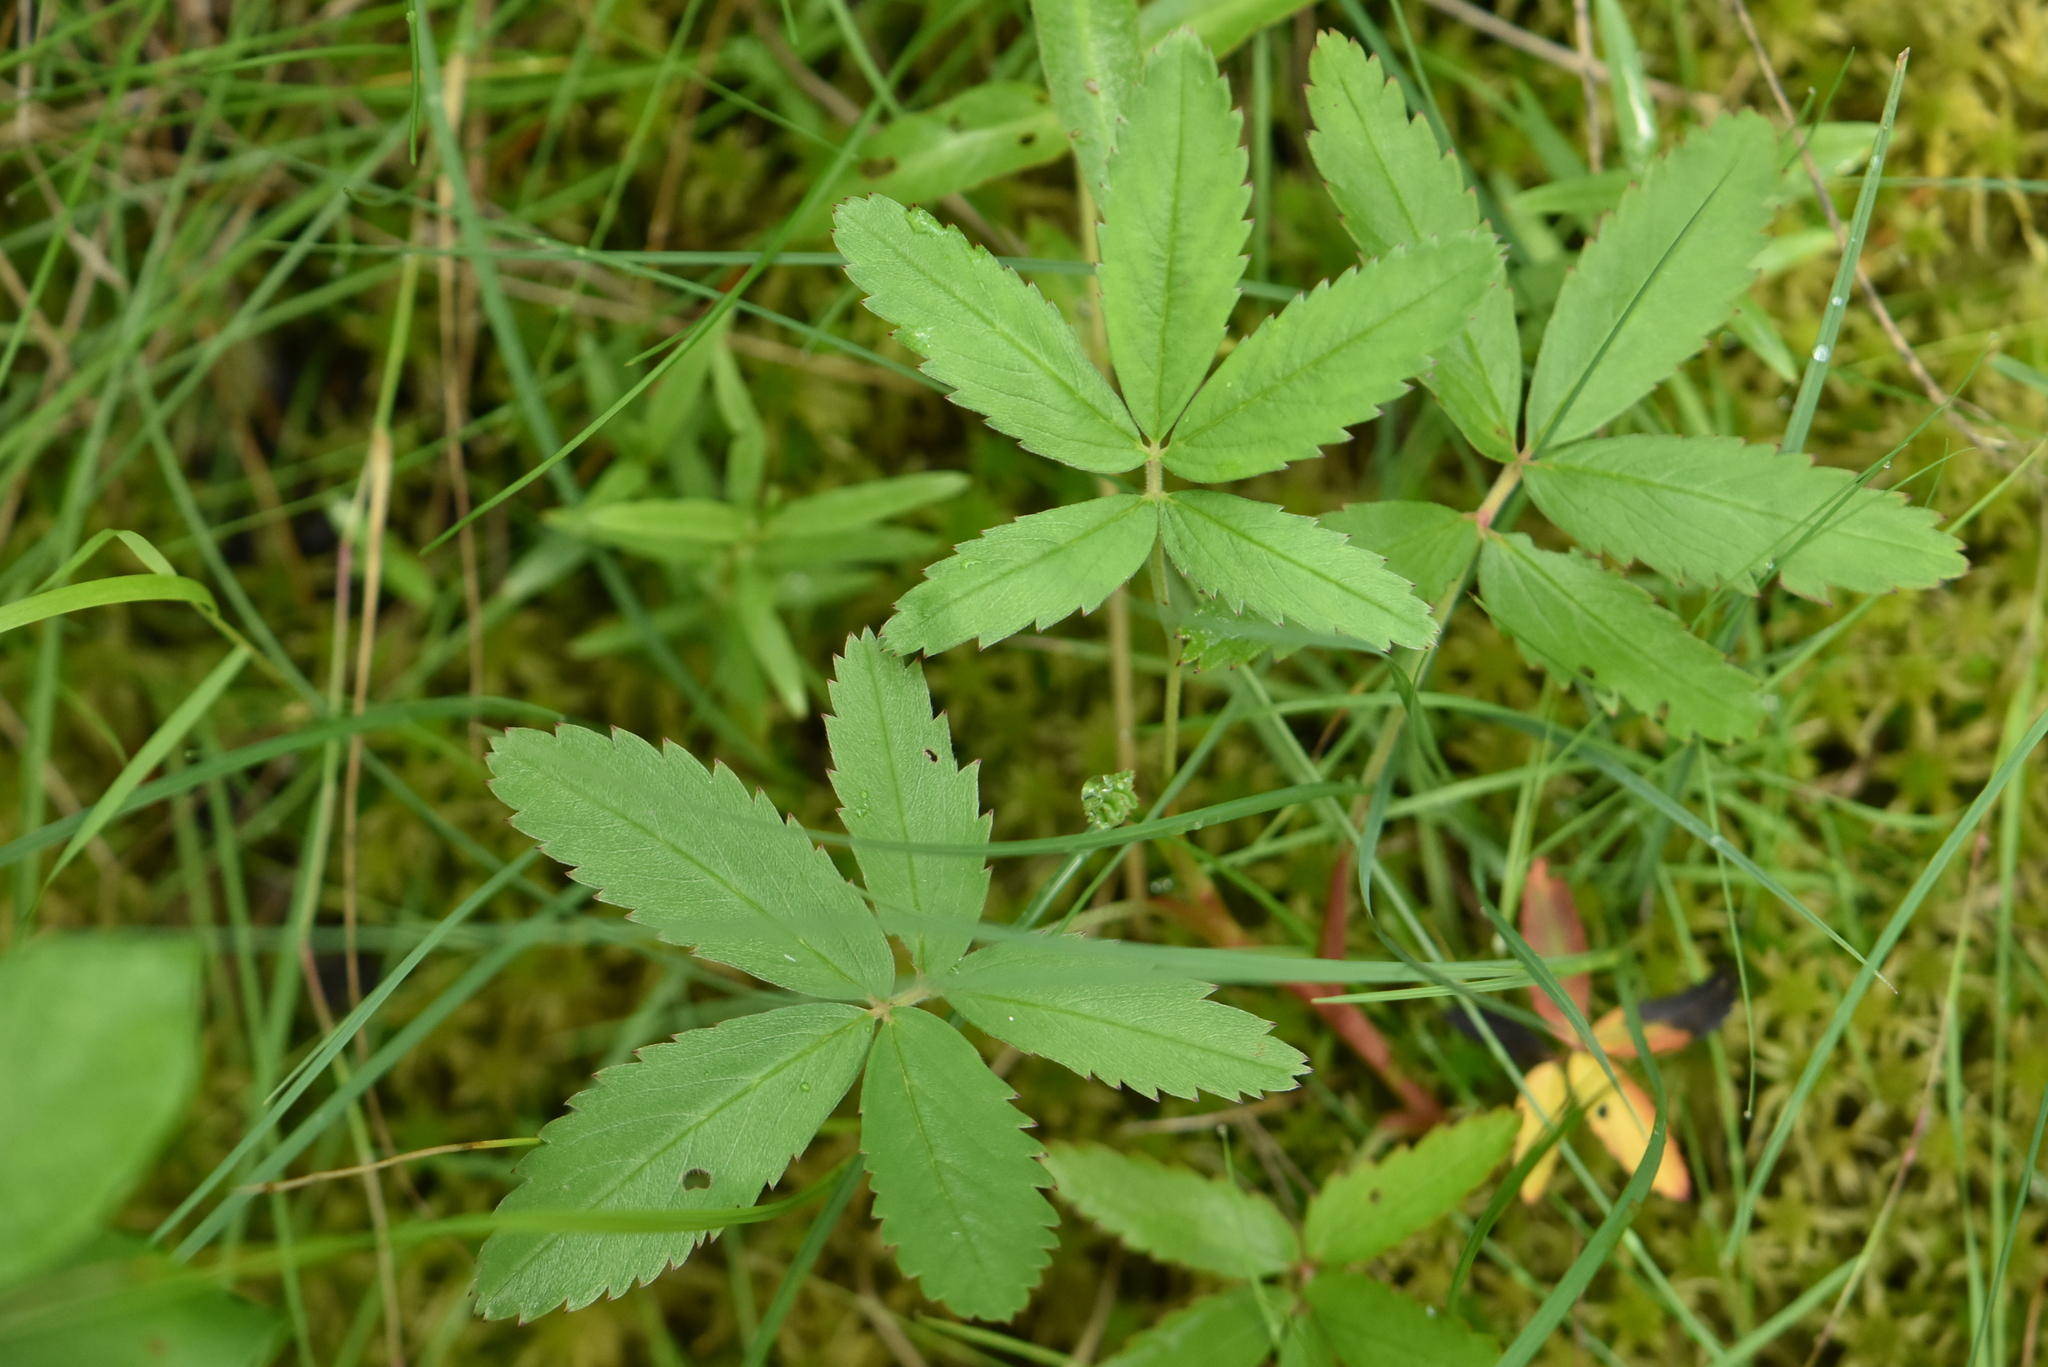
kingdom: Plantae
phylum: Tracheophyta
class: Magnoliopsida
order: Rosales
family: Rosaceae
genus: Comarum
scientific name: Comarum palustre
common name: Marsh cinquefoil
